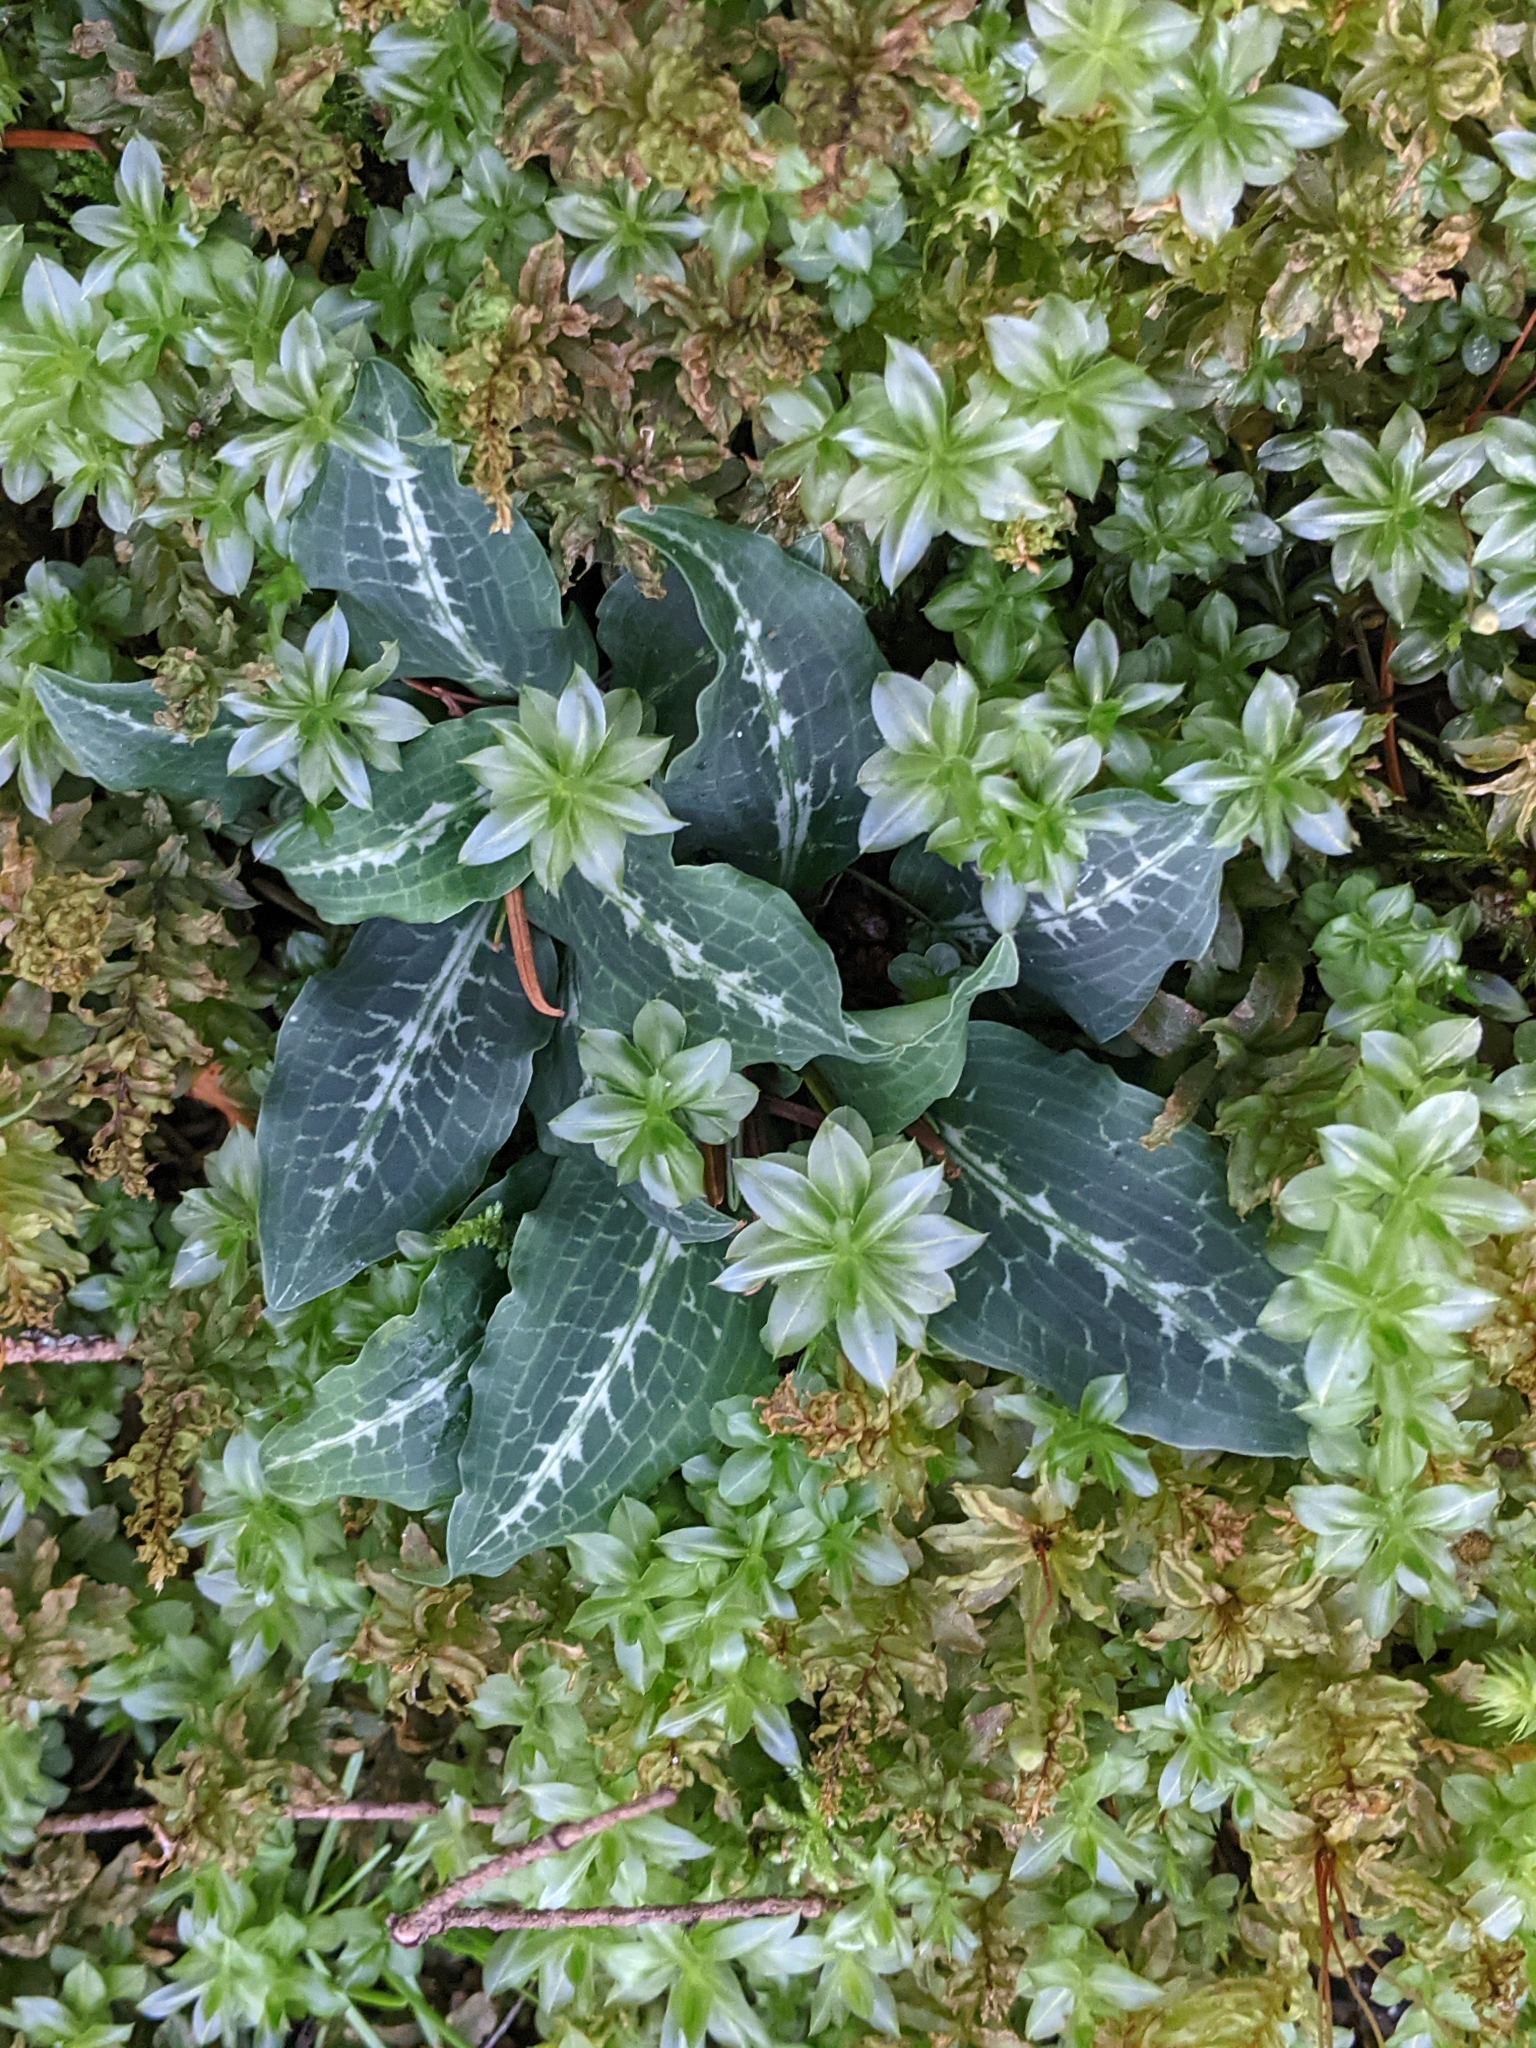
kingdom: Plantae
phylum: Tracheophyta
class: Liliopsida
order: Asparagales
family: Orchidaceae
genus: Goodyera
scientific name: Goodyera oblongifolia
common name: Giant rattlesnake-plantain
